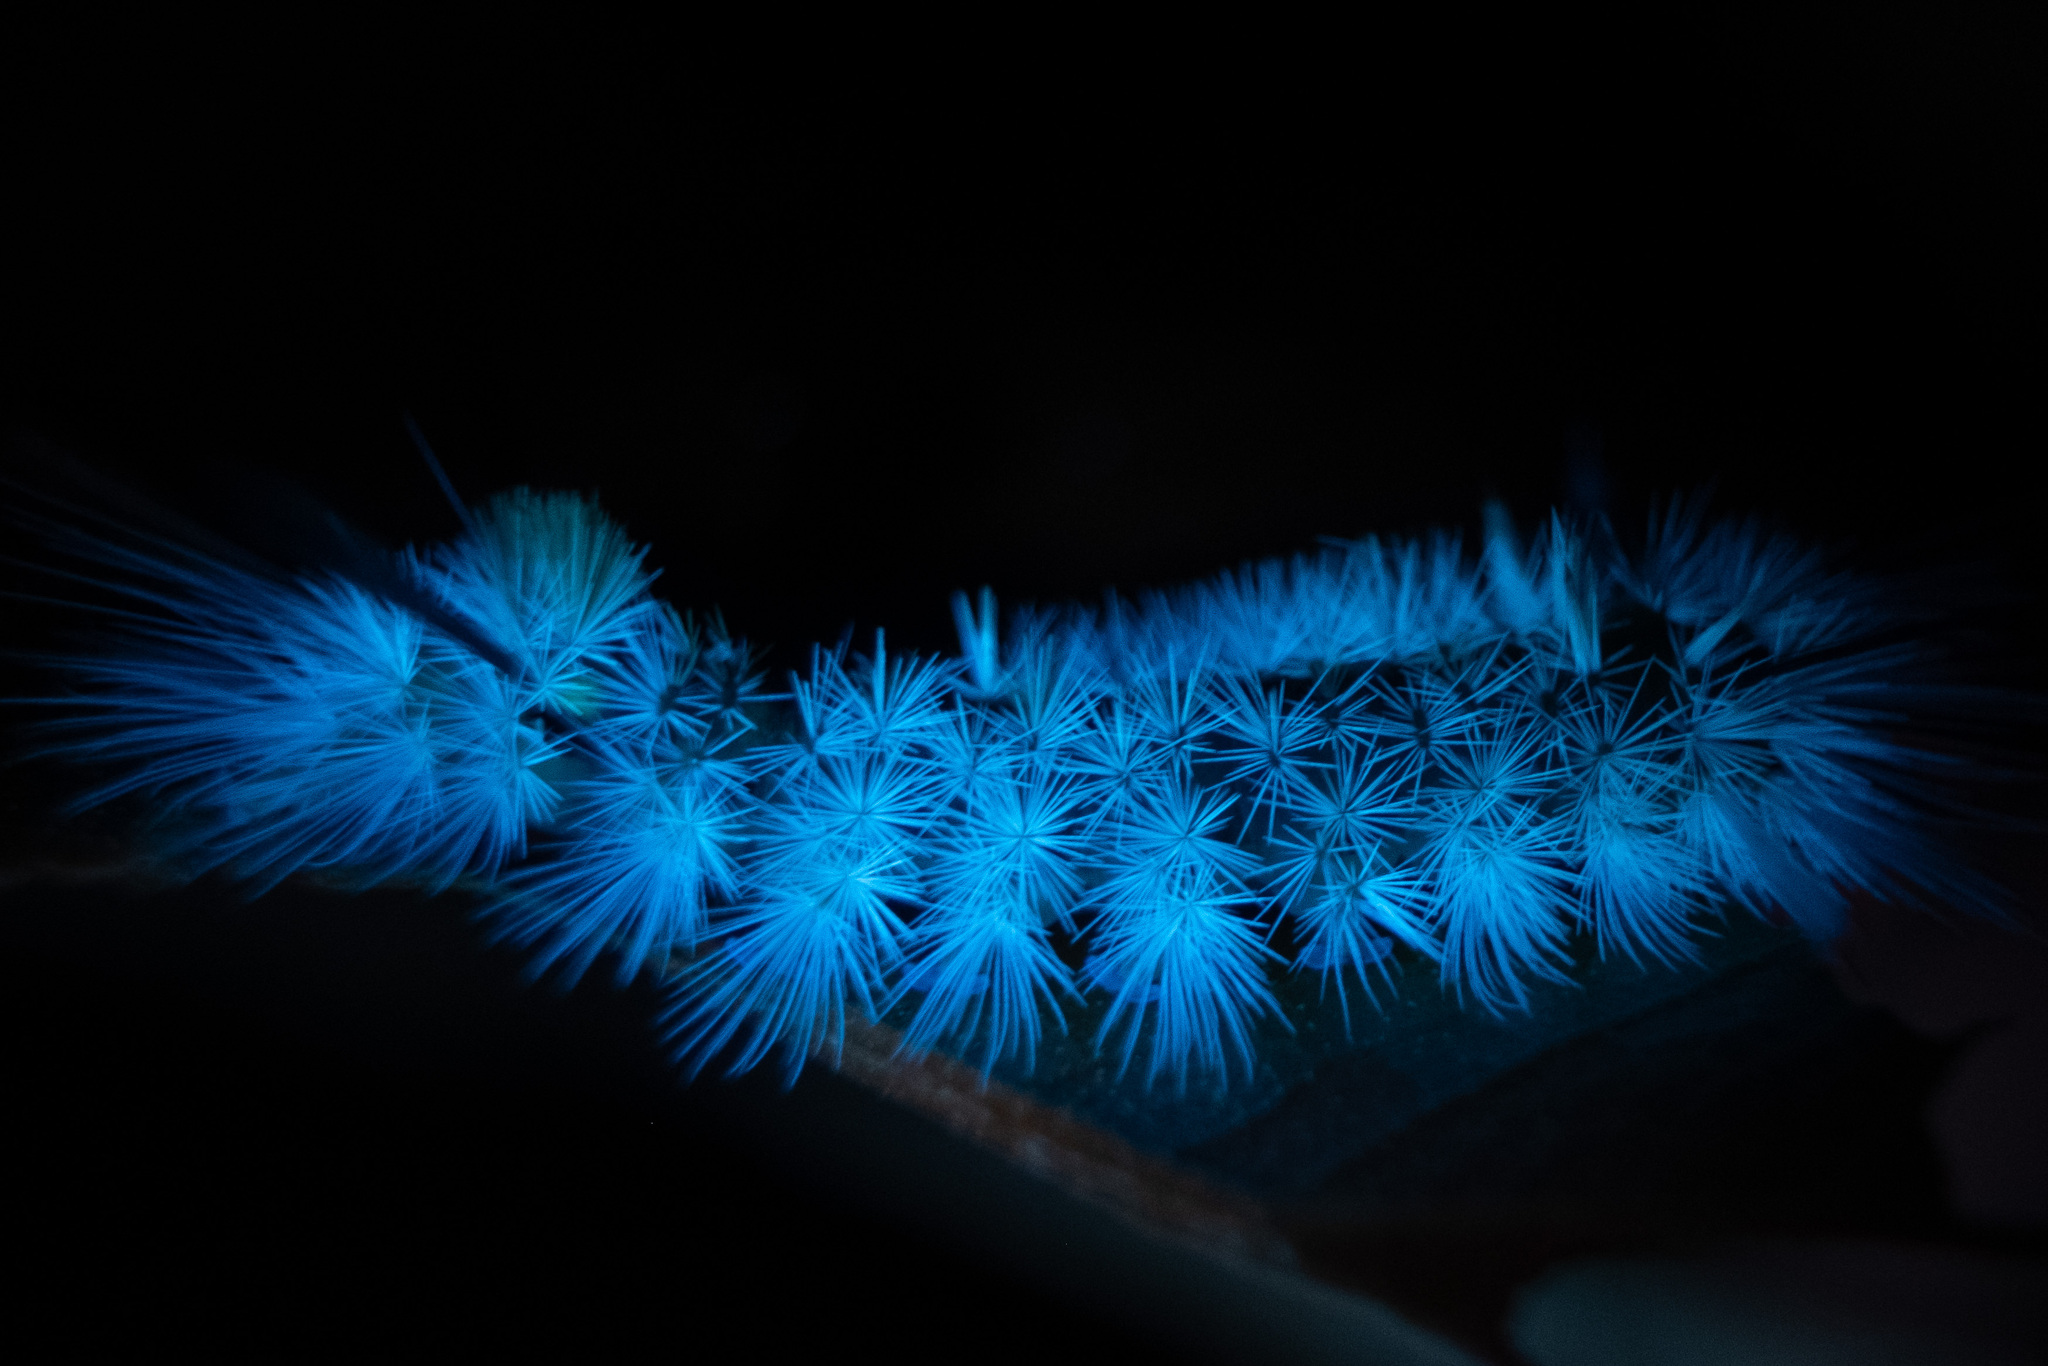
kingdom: Animalia
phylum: Arthropoda
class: Insecta
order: Lepidoptera
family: Erebidae
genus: Halysidota
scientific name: Halysidota tessellaris
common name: Banded tussock moth
